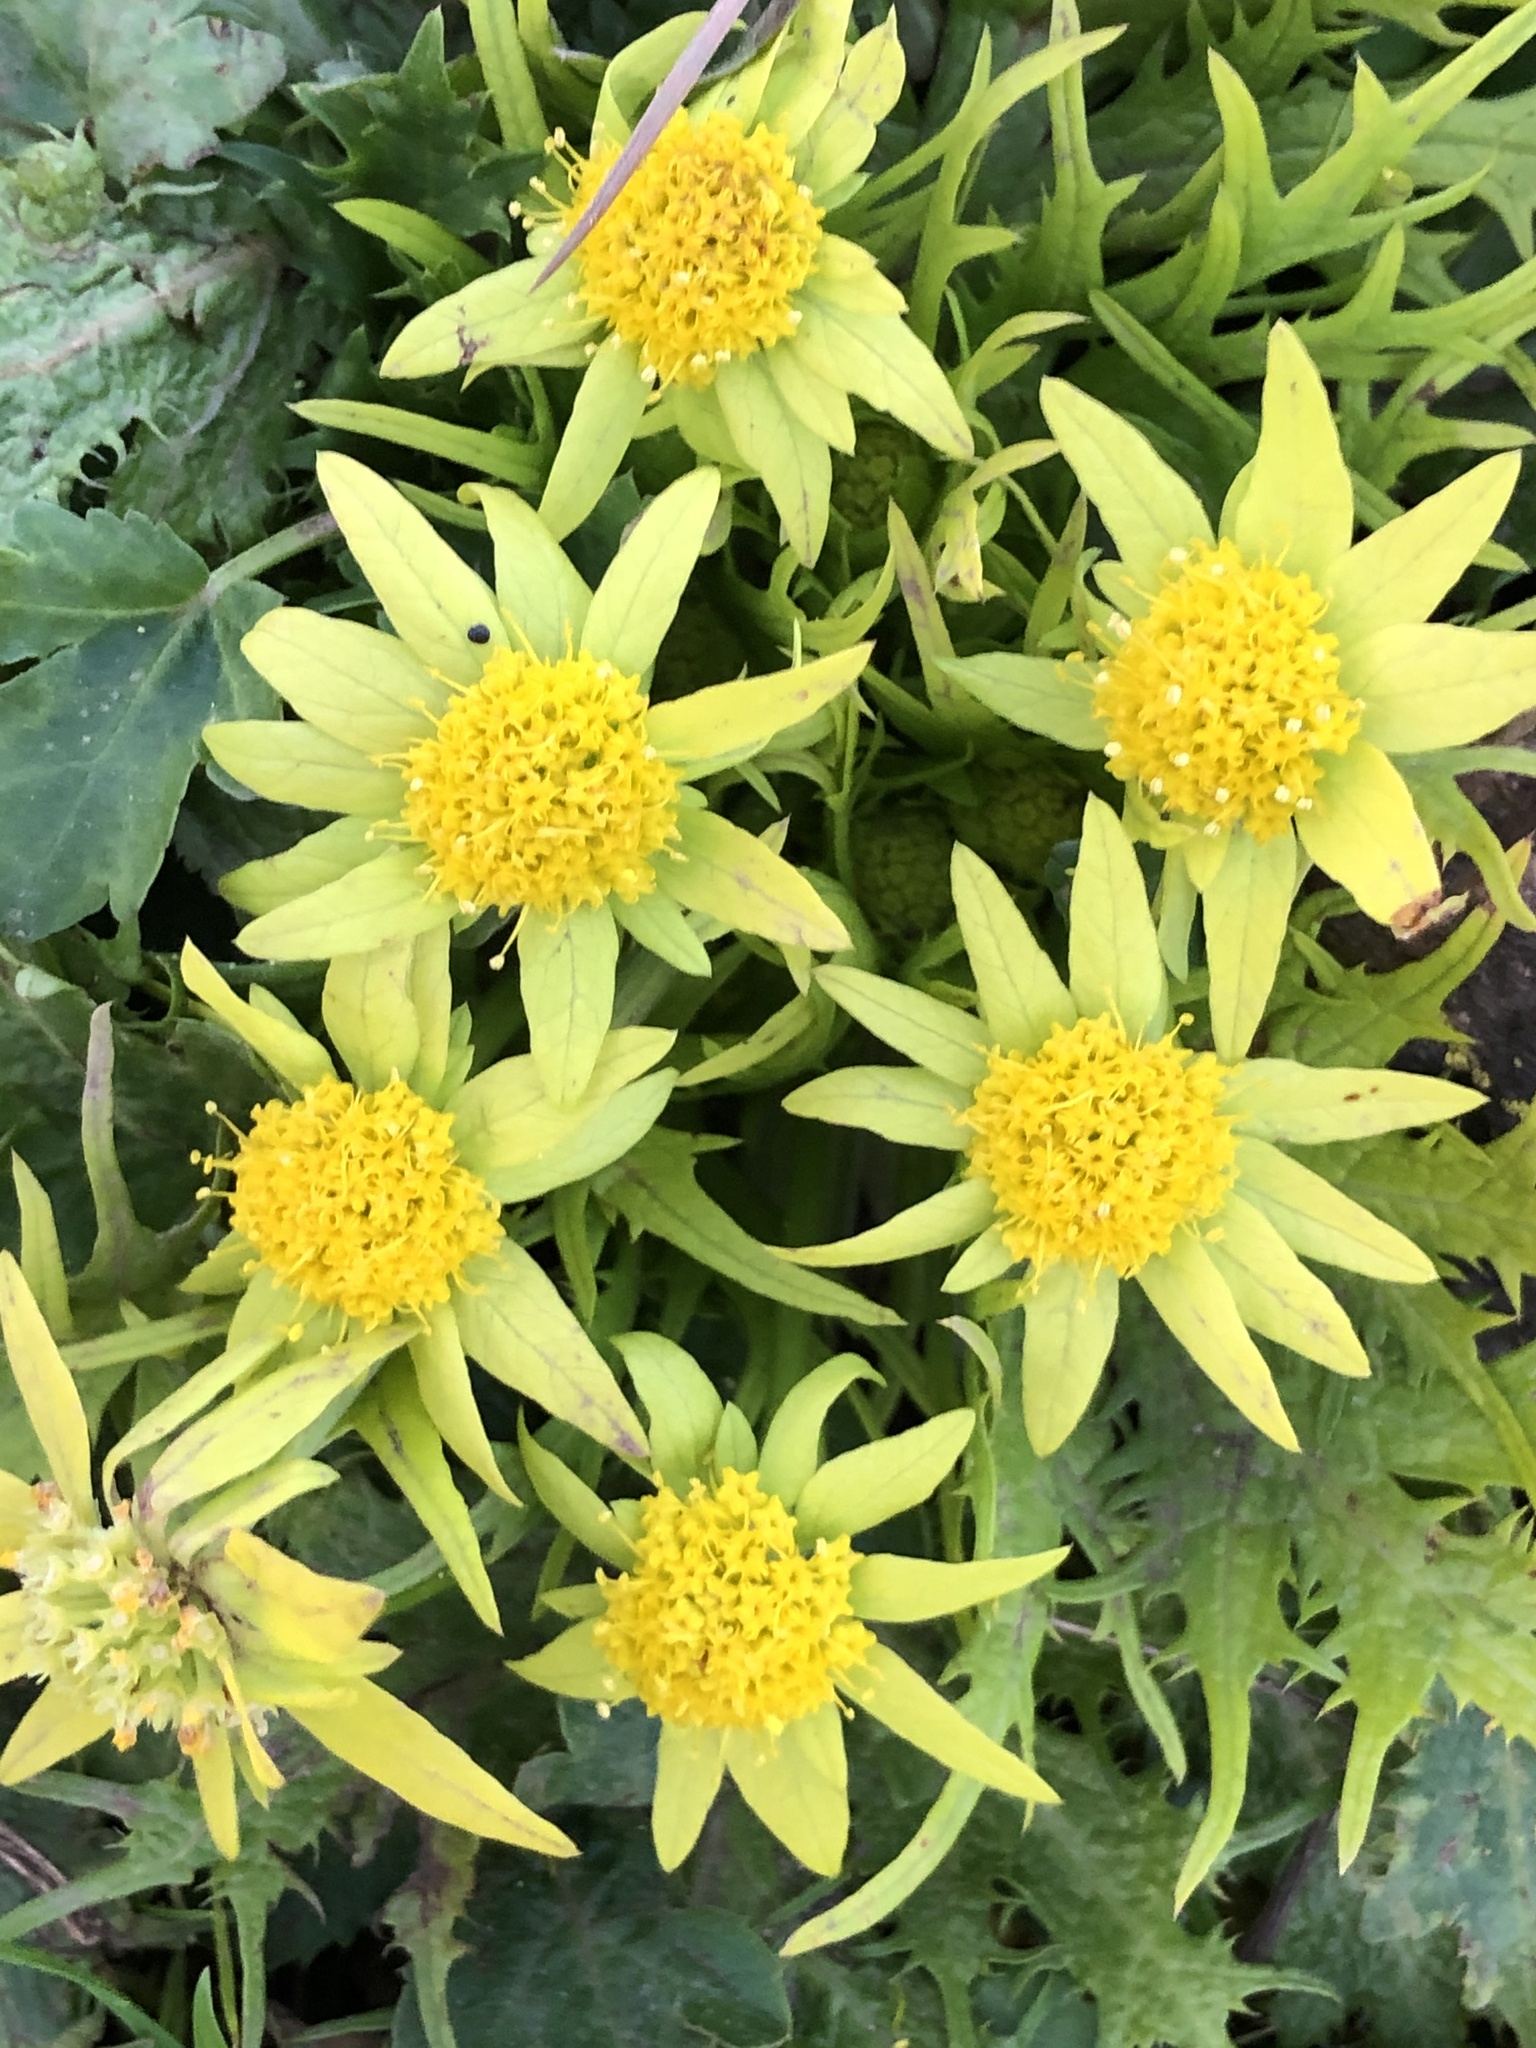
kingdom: Plantae
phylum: Tracheophyta
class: Magnoliopsida
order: Apiales
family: Apiaceae
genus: Sanicula
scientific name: Sanicula arctopoides
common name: Footsteps-of-spring
